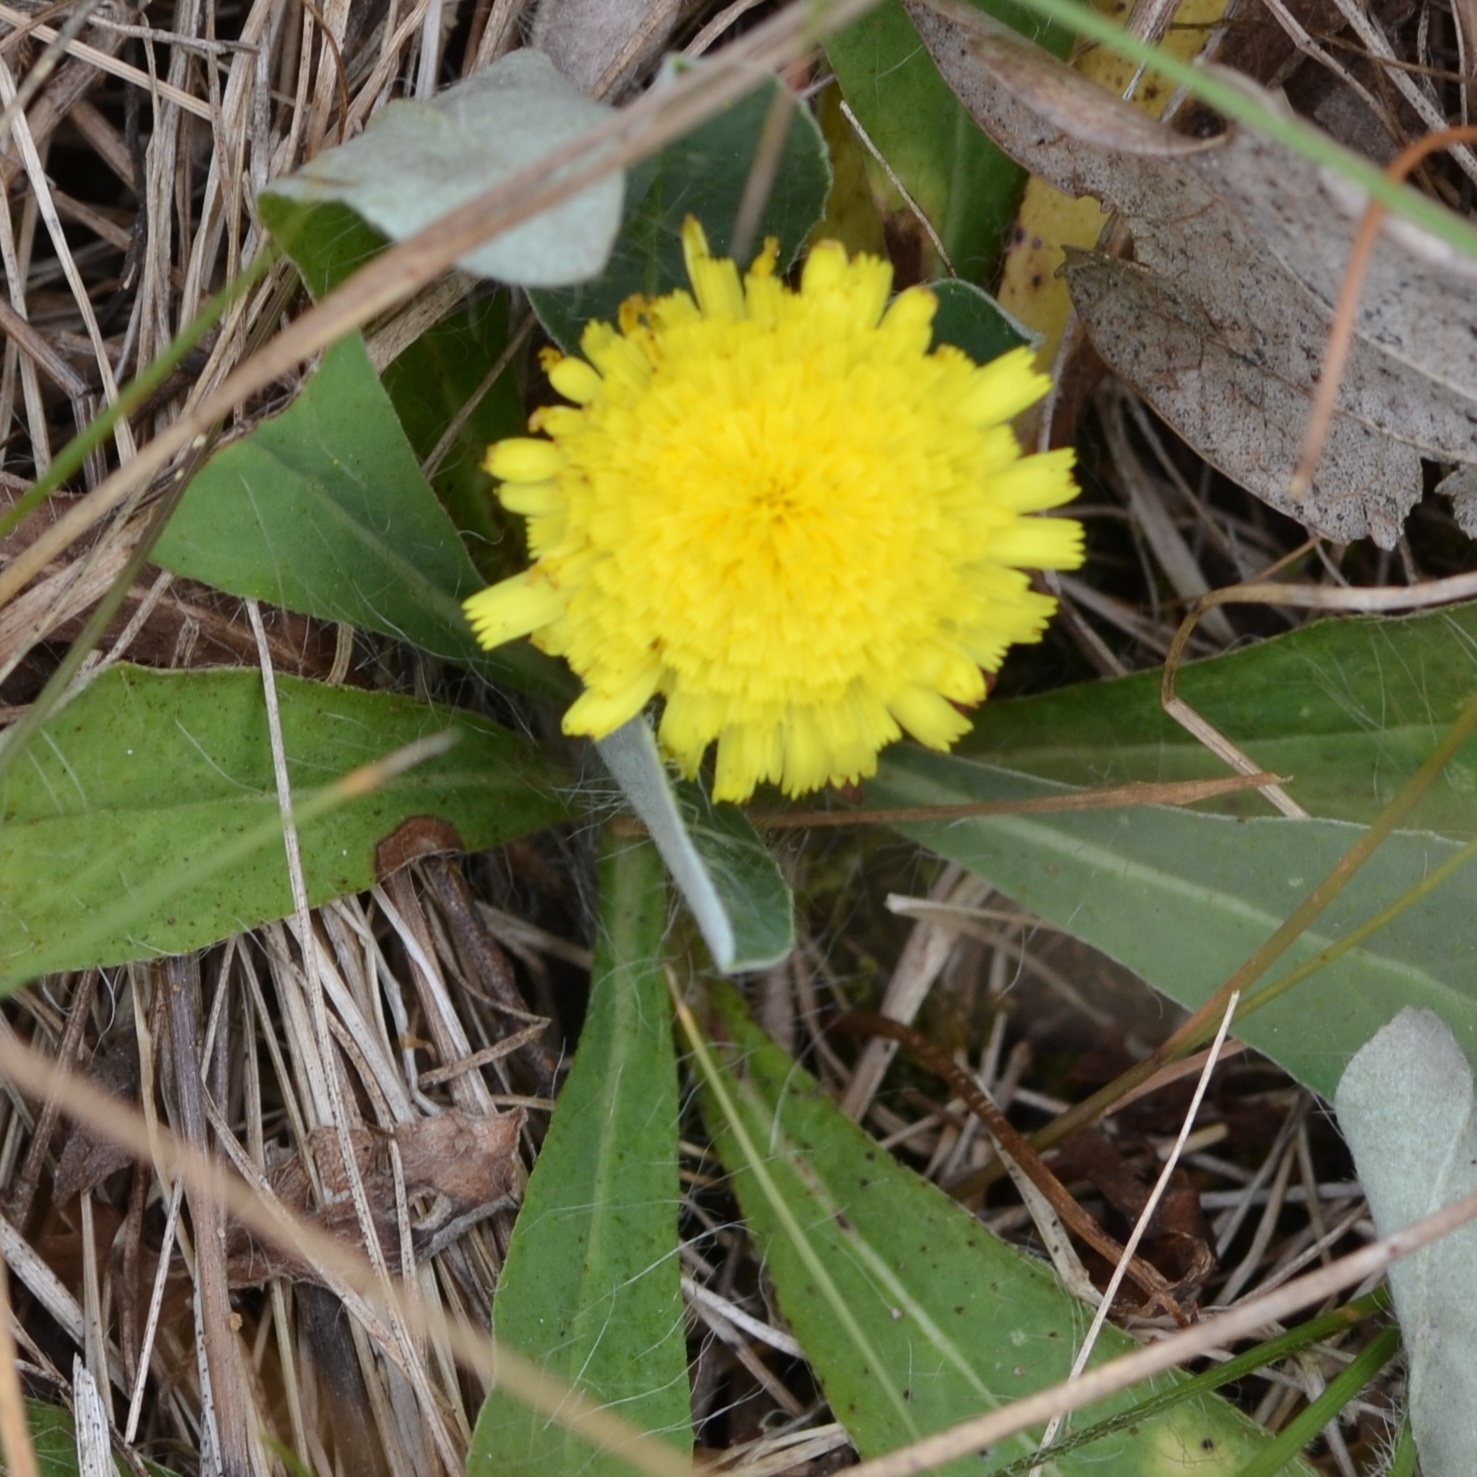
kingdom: Plantae
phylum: Tracheophyta
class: Magnoliopsida
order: Asterales
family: Asteraceae
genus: Pilosella
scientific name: Pilosella officinarum
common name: Mouse-ear hawkweed
